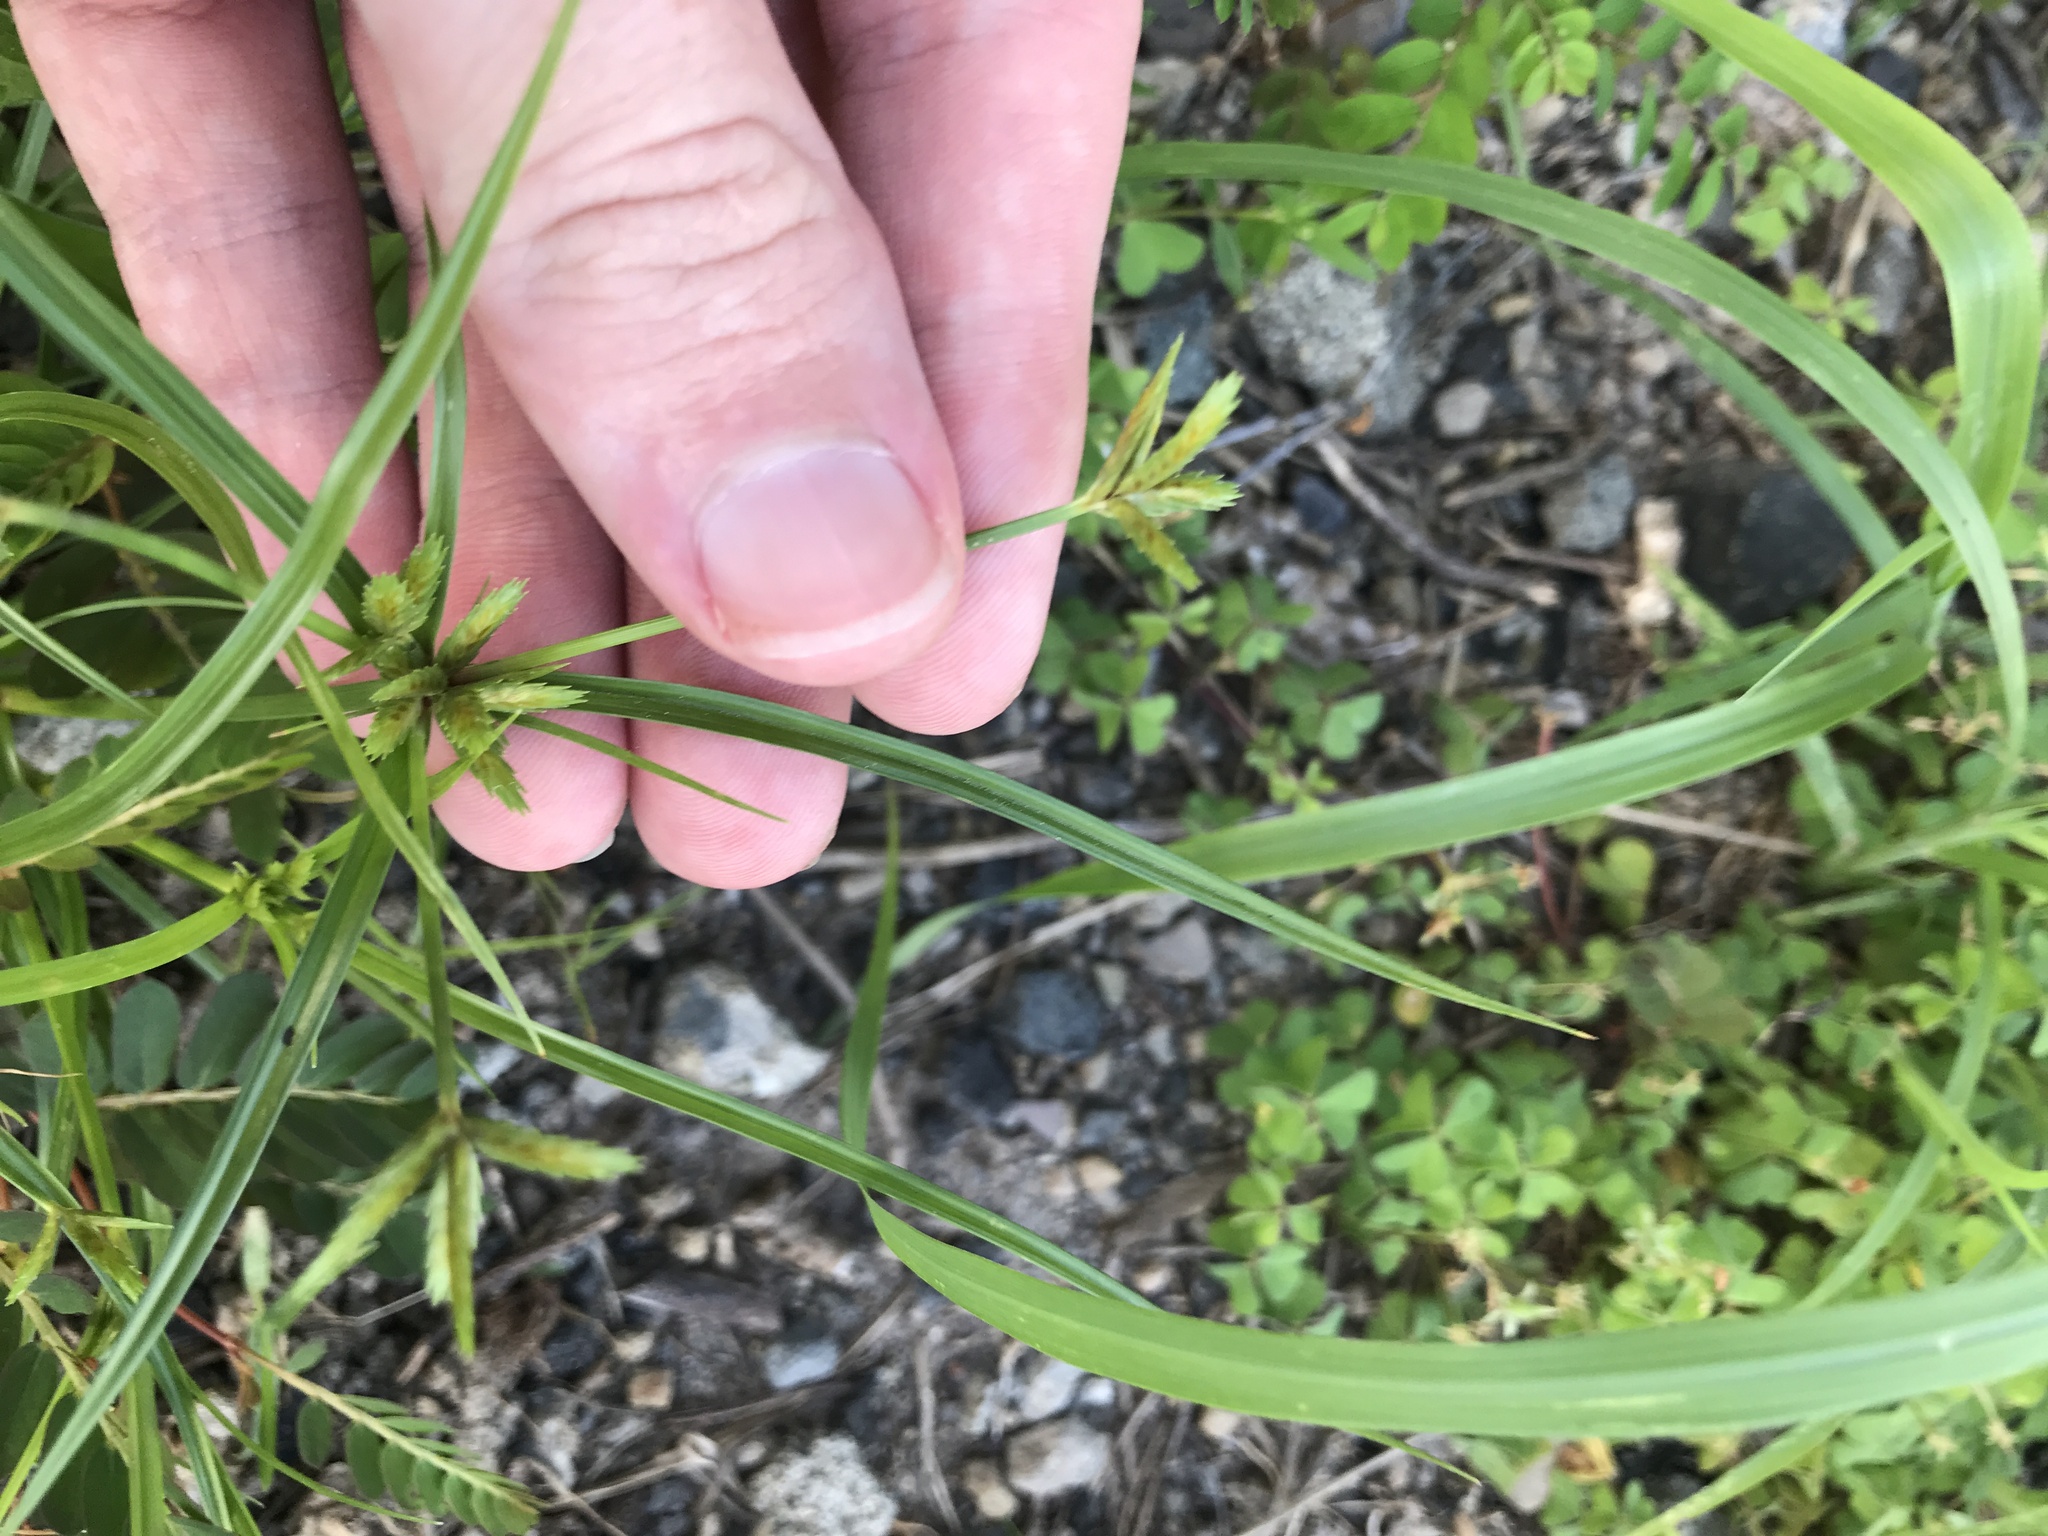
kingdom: Plantae
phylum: Tracheophyta
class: Liliopsida
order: Poales
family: Cyperaceae
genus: Cyperus
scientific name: Cyperus compressus
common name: Poorland flatsedge
